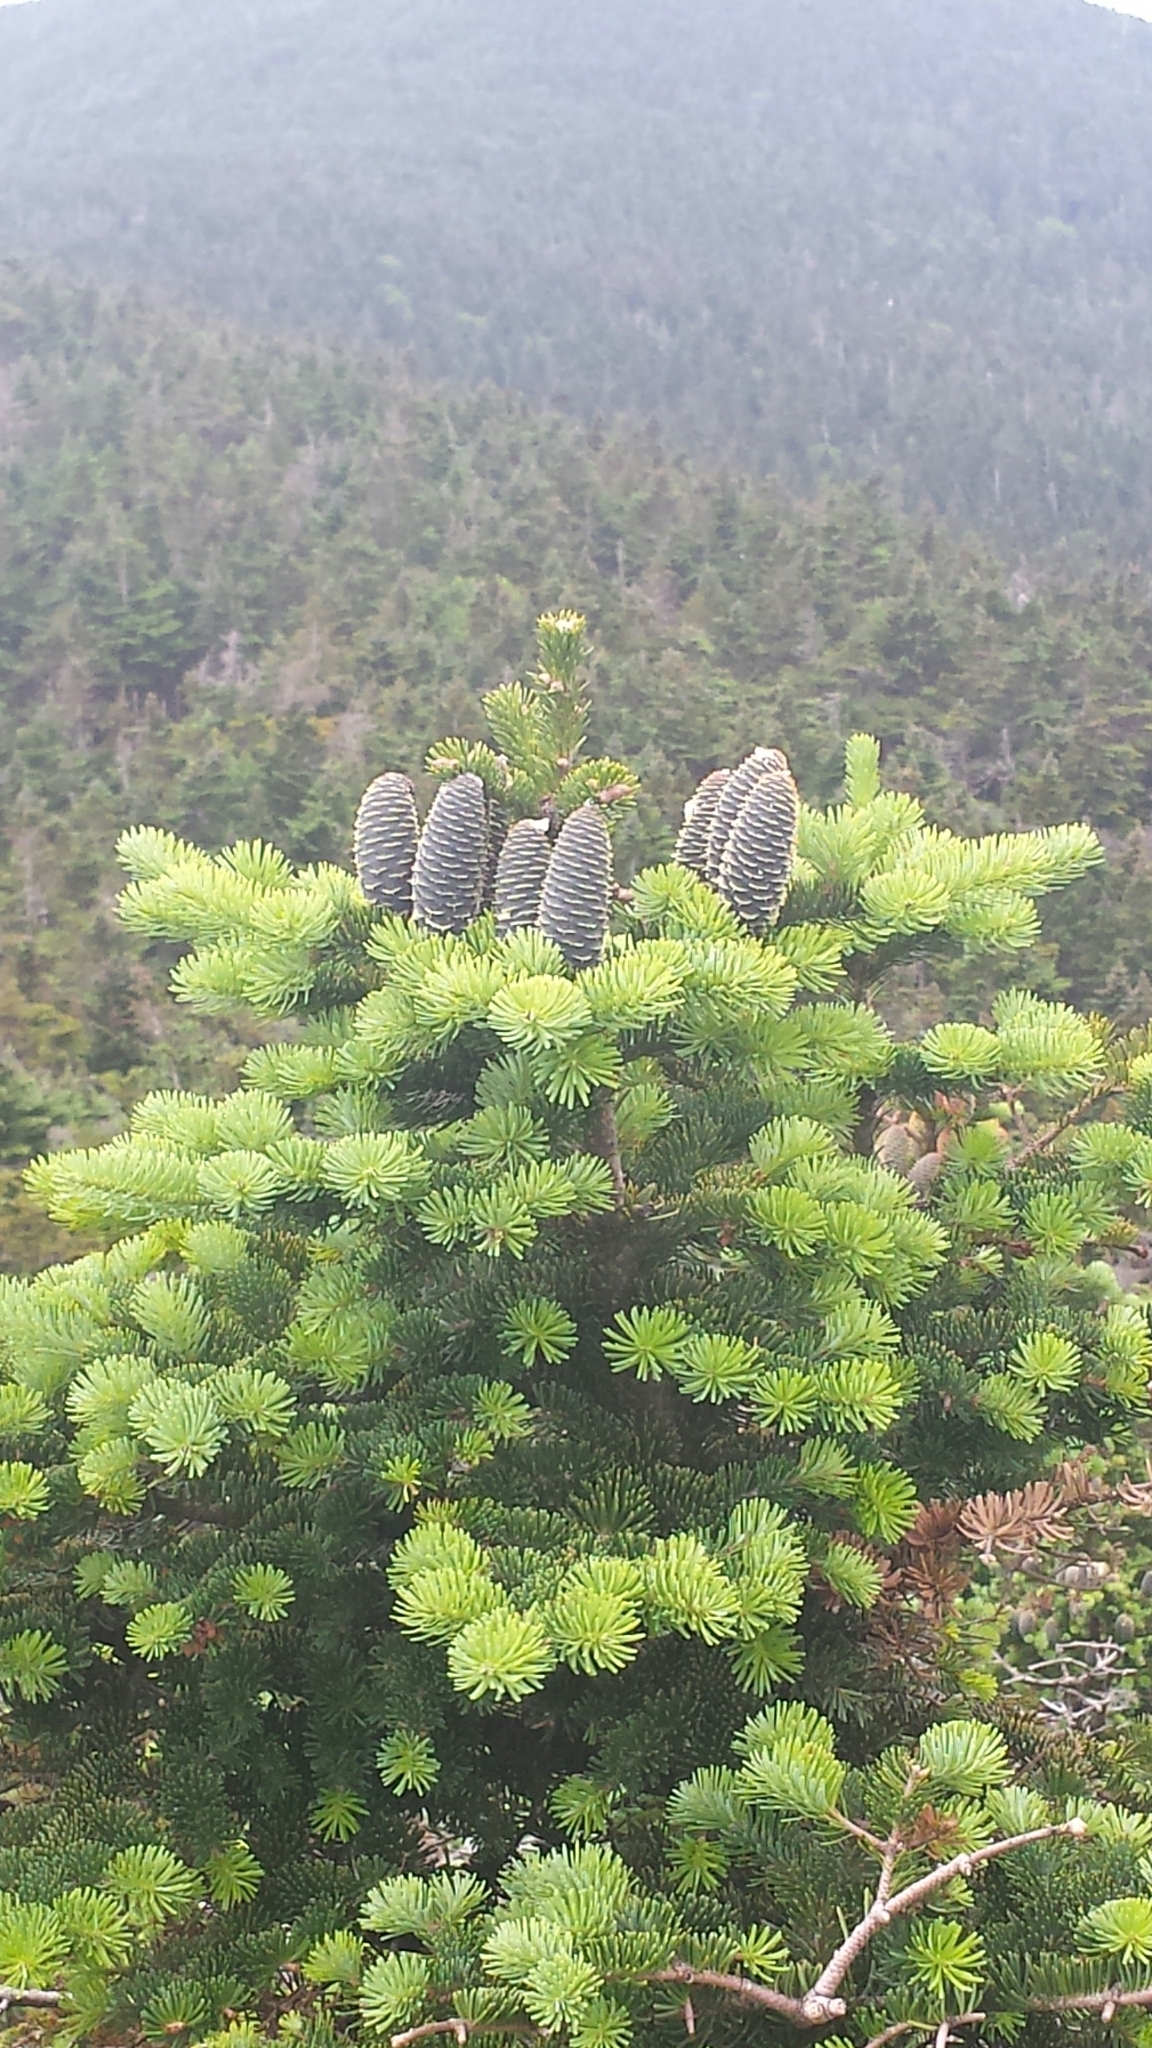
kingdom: Plantae
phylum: Tracheophyta
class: Pinopsida
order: Pinales
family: Pinaceae
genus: Abies
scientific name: Abies balsamea
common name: Balsam fir
